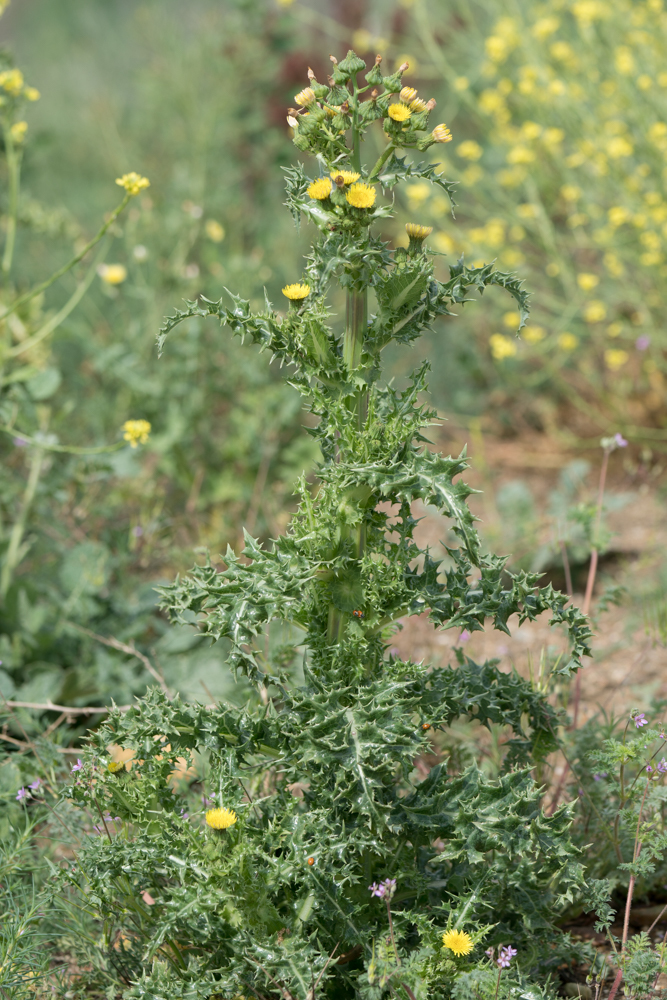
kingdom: Plantae
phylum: Tracheophyta
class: Magnoliopsida
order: Asterales
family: Asteraceae
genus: Sonchus
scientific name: Sonchus asper
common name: Prickly sow-thistle
